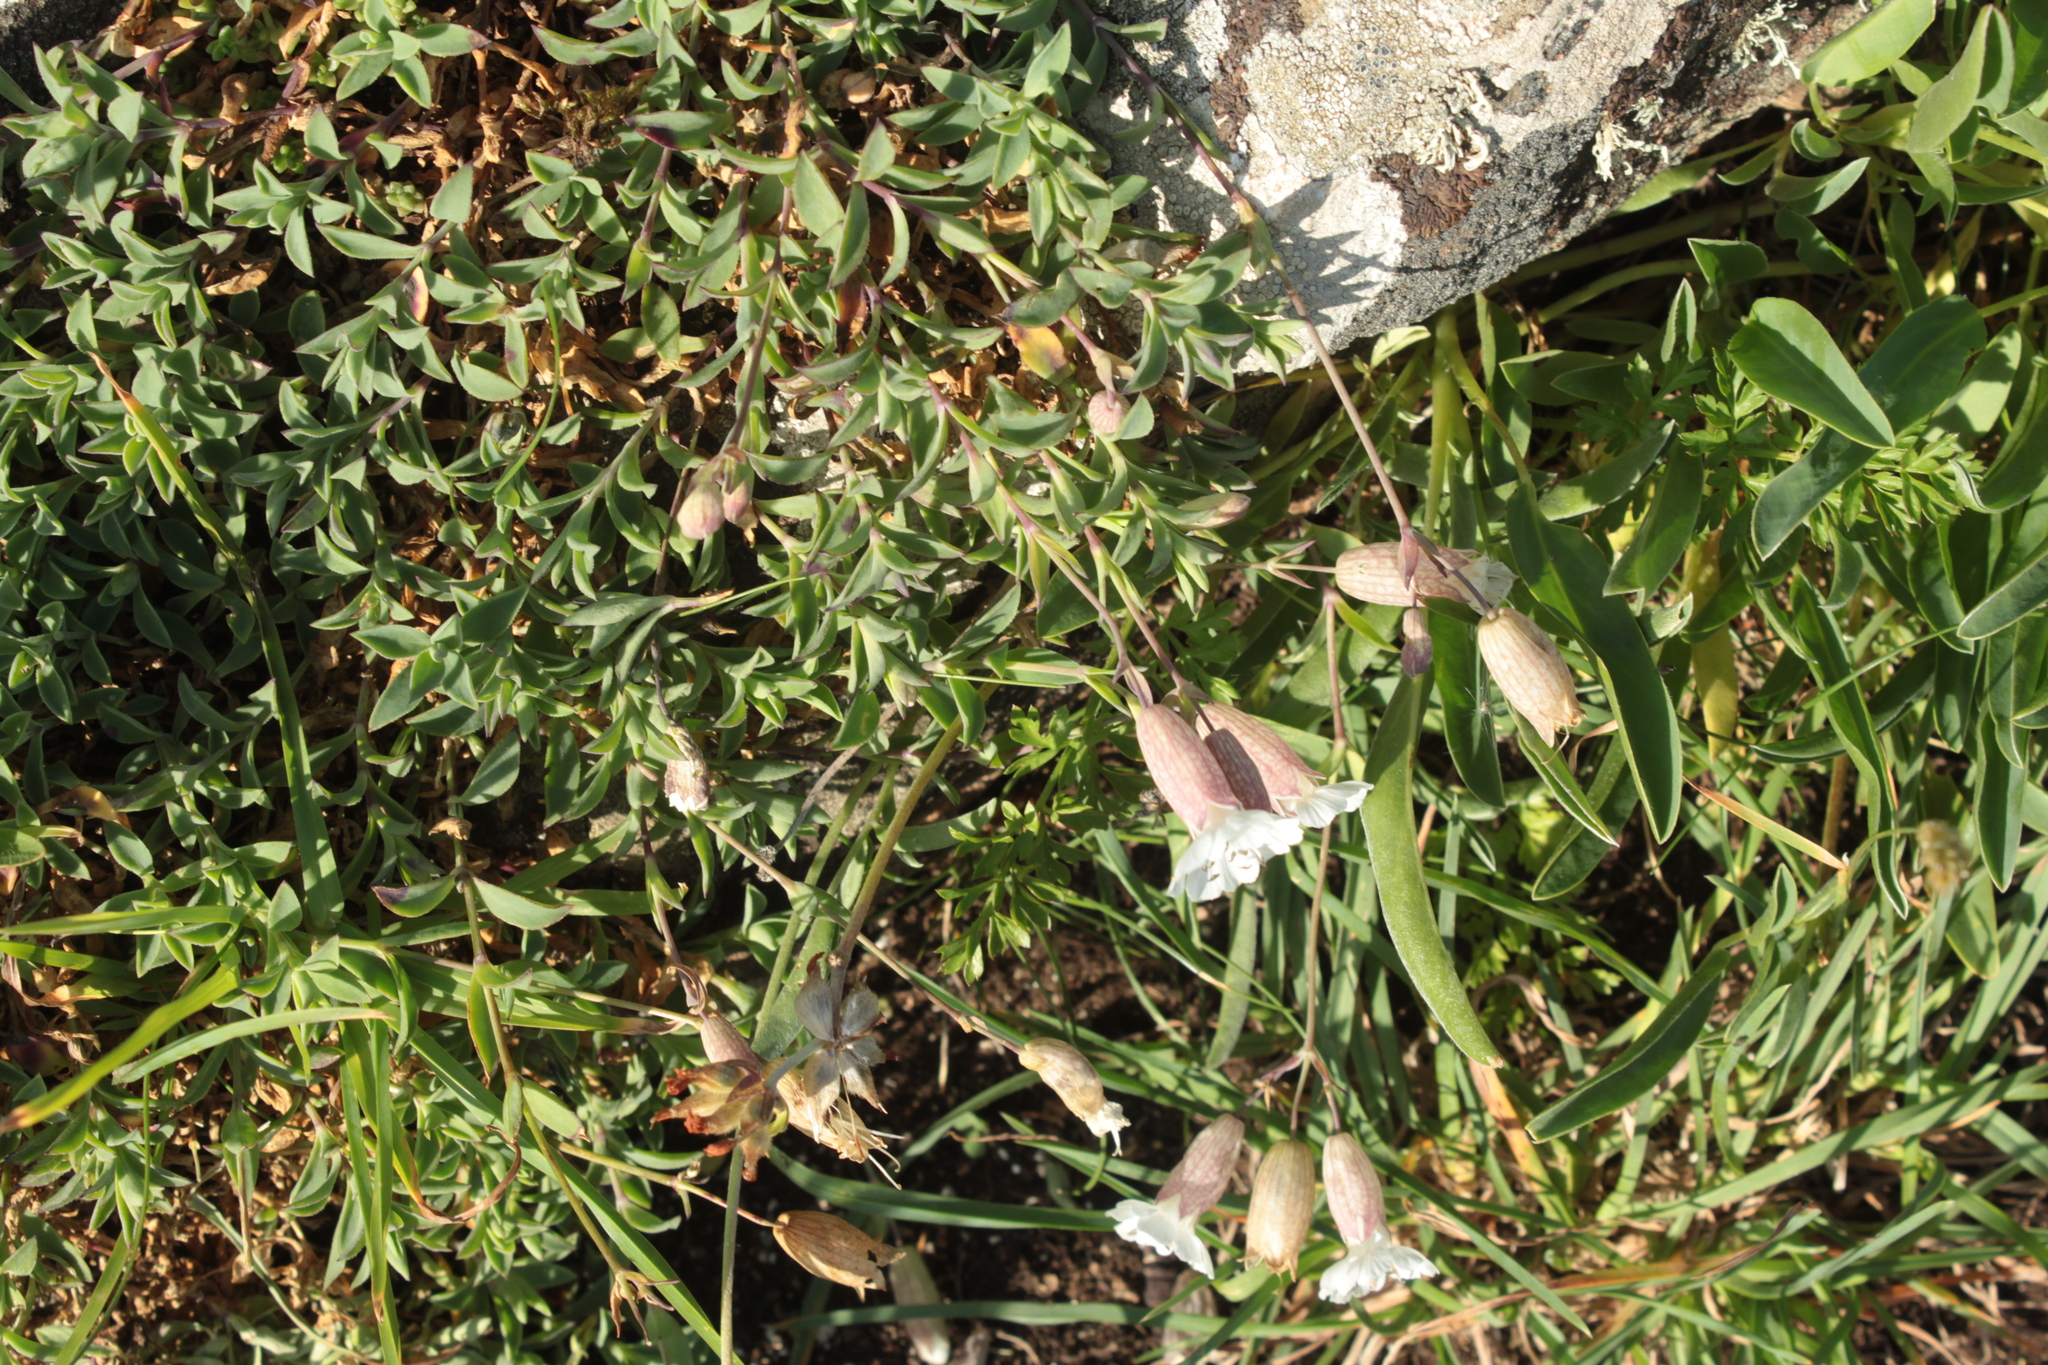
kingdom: Plantae
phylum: Tracheophyta
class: Magnoliopsida
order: Caryophyllales
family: Caryophyllaceae
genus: Silene
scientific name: Silene uniflora
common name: Sea campion
